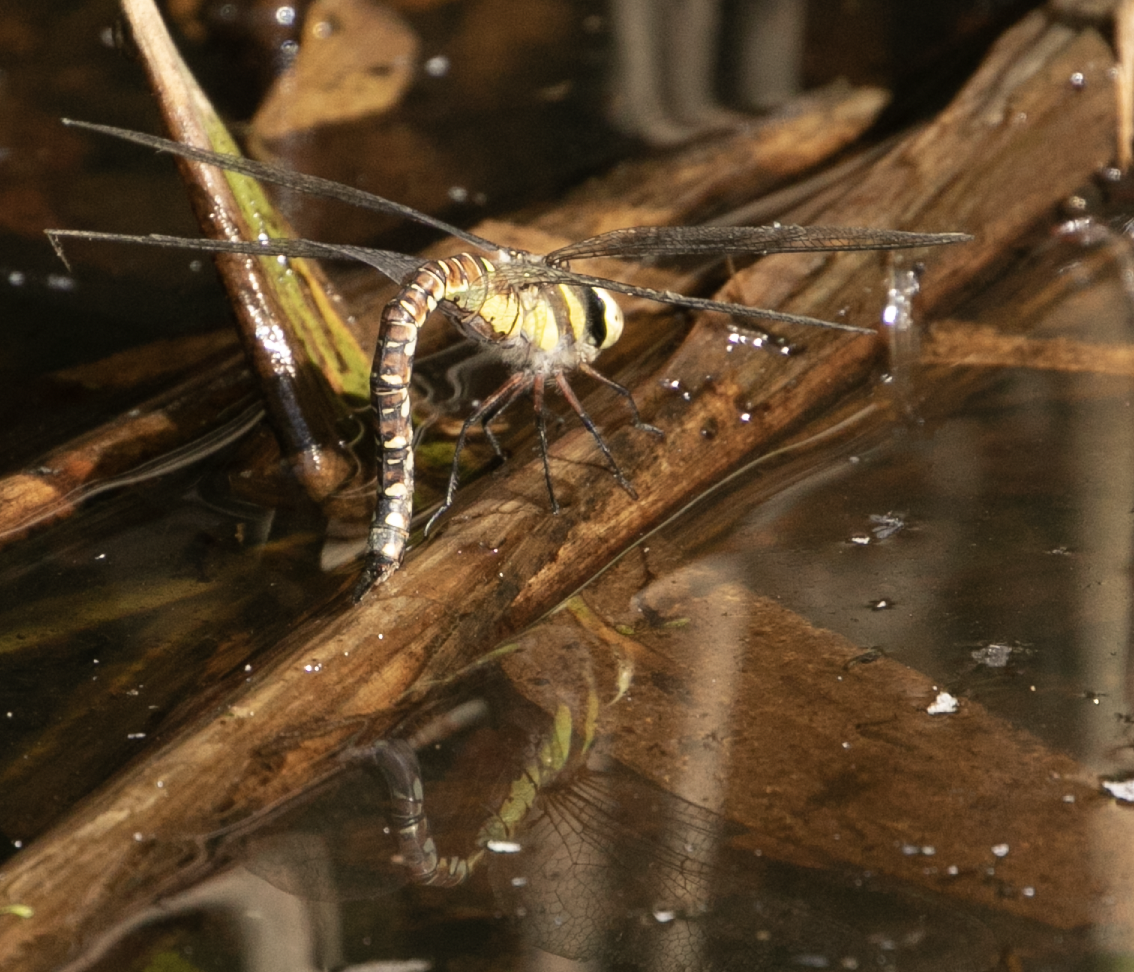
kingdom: Animalia
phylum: Arthropoda
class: Insecta
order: Odonata
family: Aeshnidae
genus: Aeshna
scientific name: Aeshna mixta
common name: Migrant hawker
